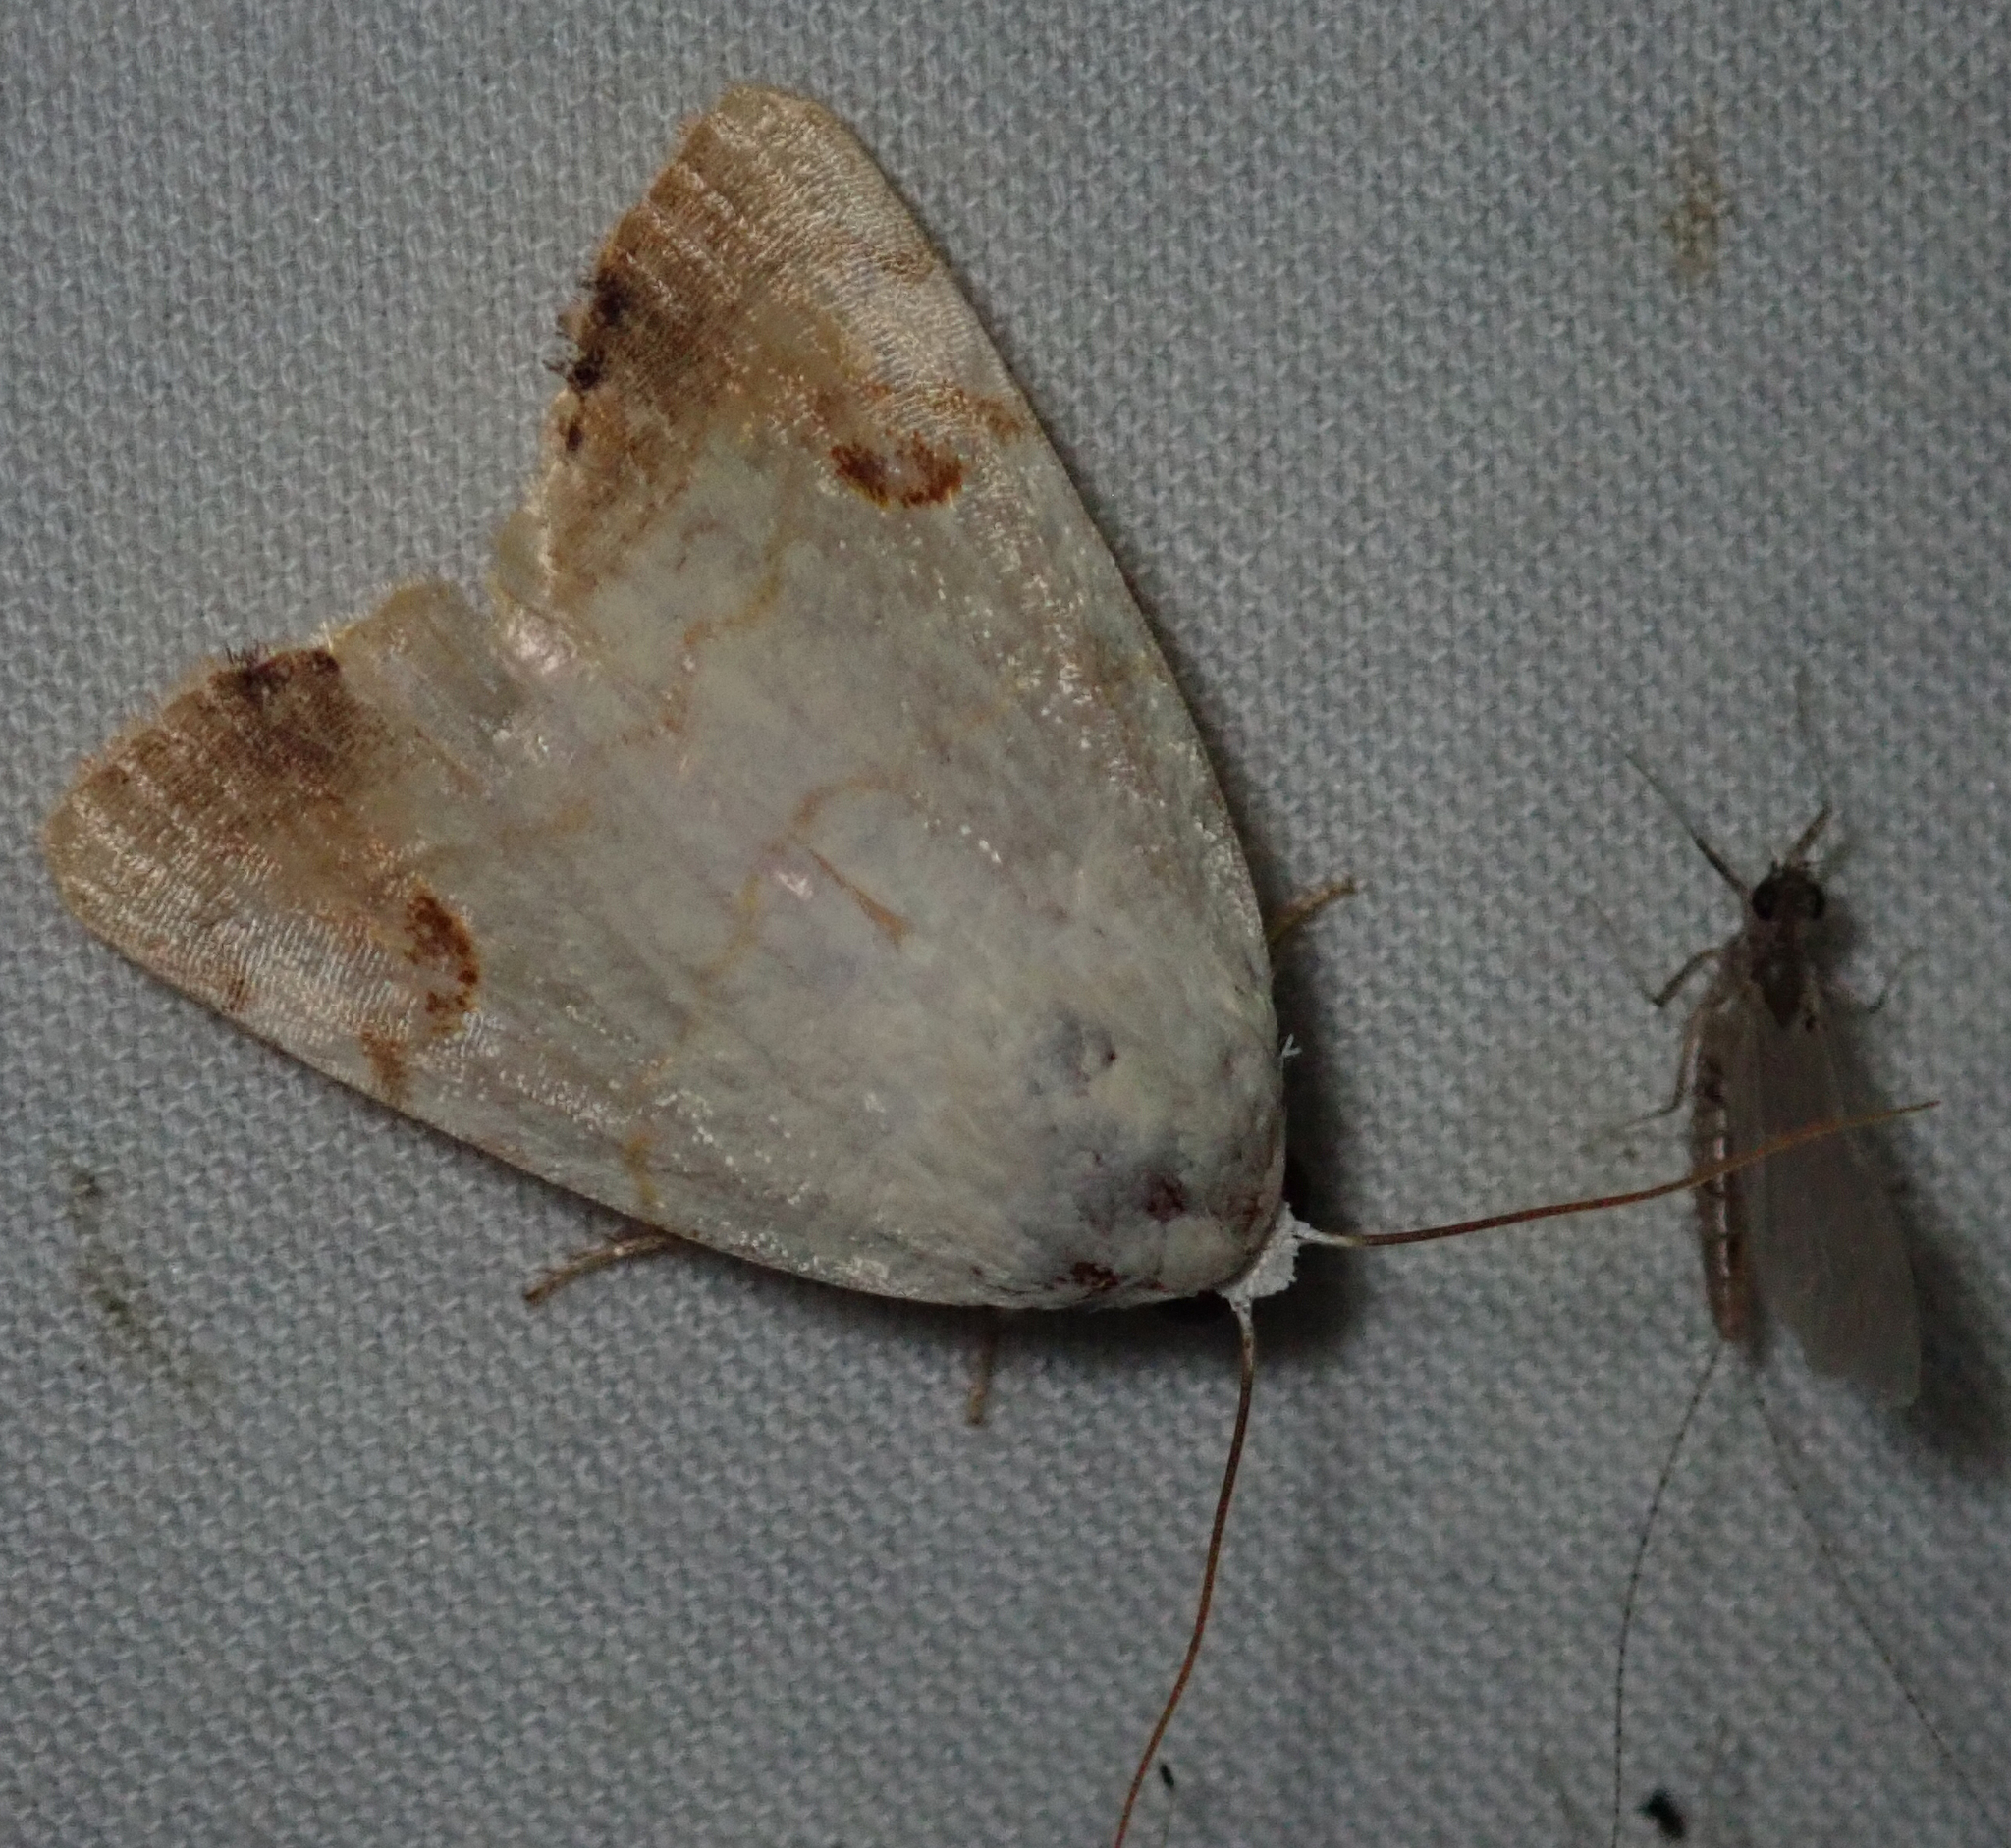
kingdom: Animalia
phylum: Arthropoda
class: Insecta
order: Lepidoptera
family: Nolidae
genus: Xanthodes
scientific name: Xanthodes albago
